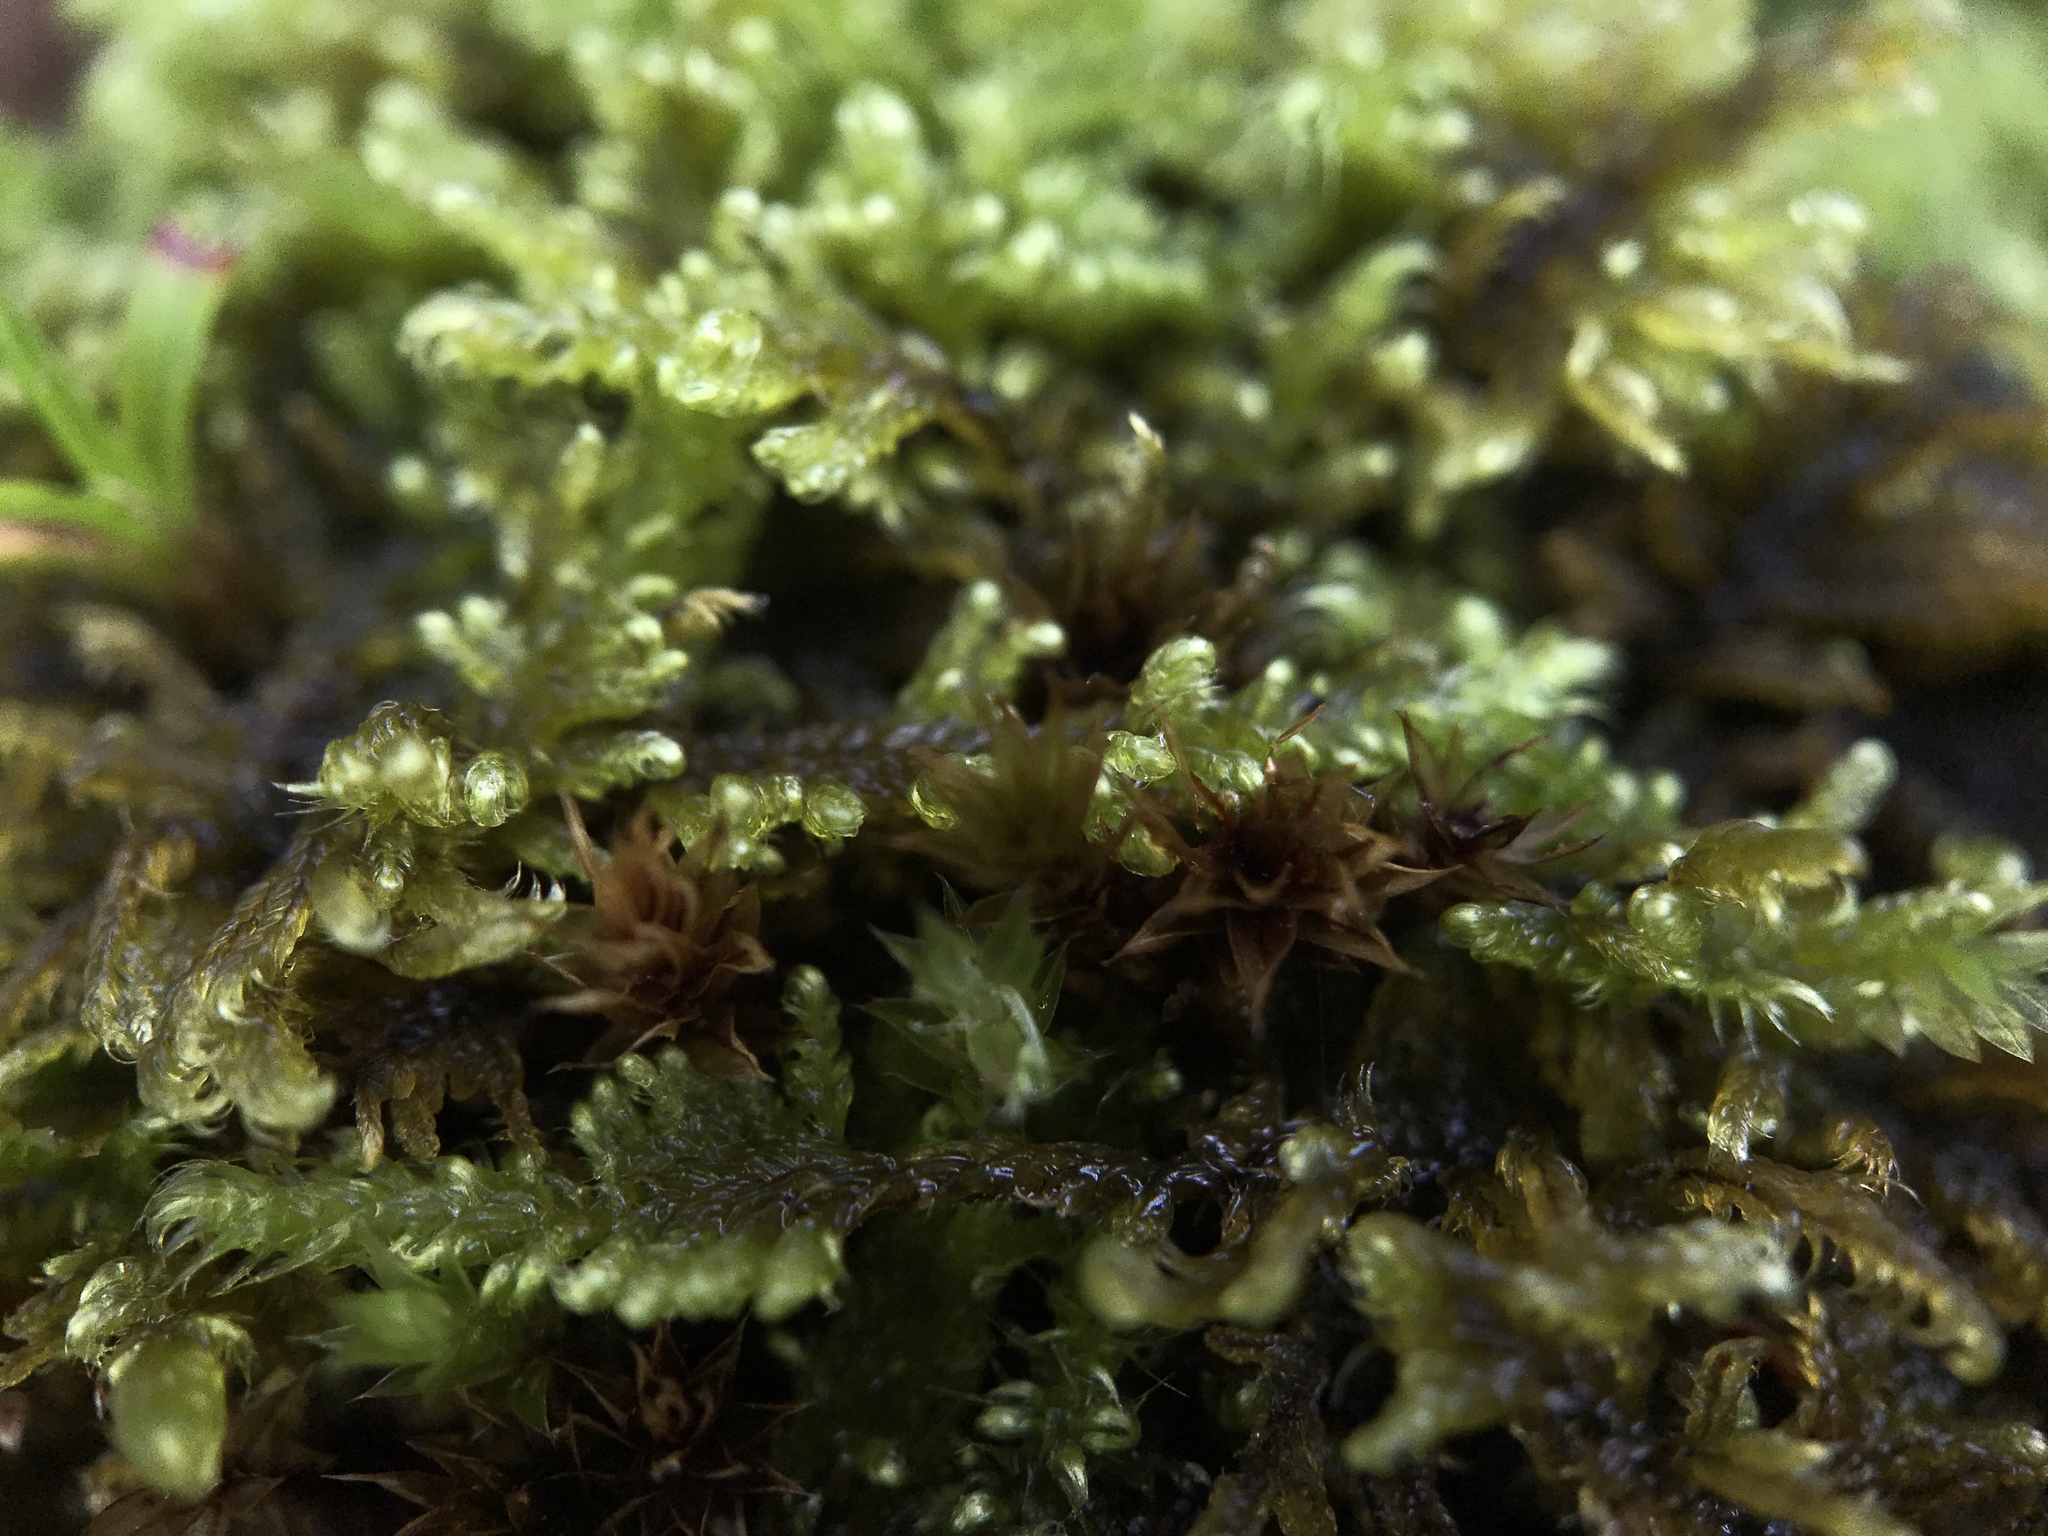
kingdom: Plantae
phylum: Bryophyta
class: Bryopsida
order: Hypnales
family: Amblystegiaceae
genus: Palustriella
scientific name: Palustriella commutata
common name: Curled hook-moss
